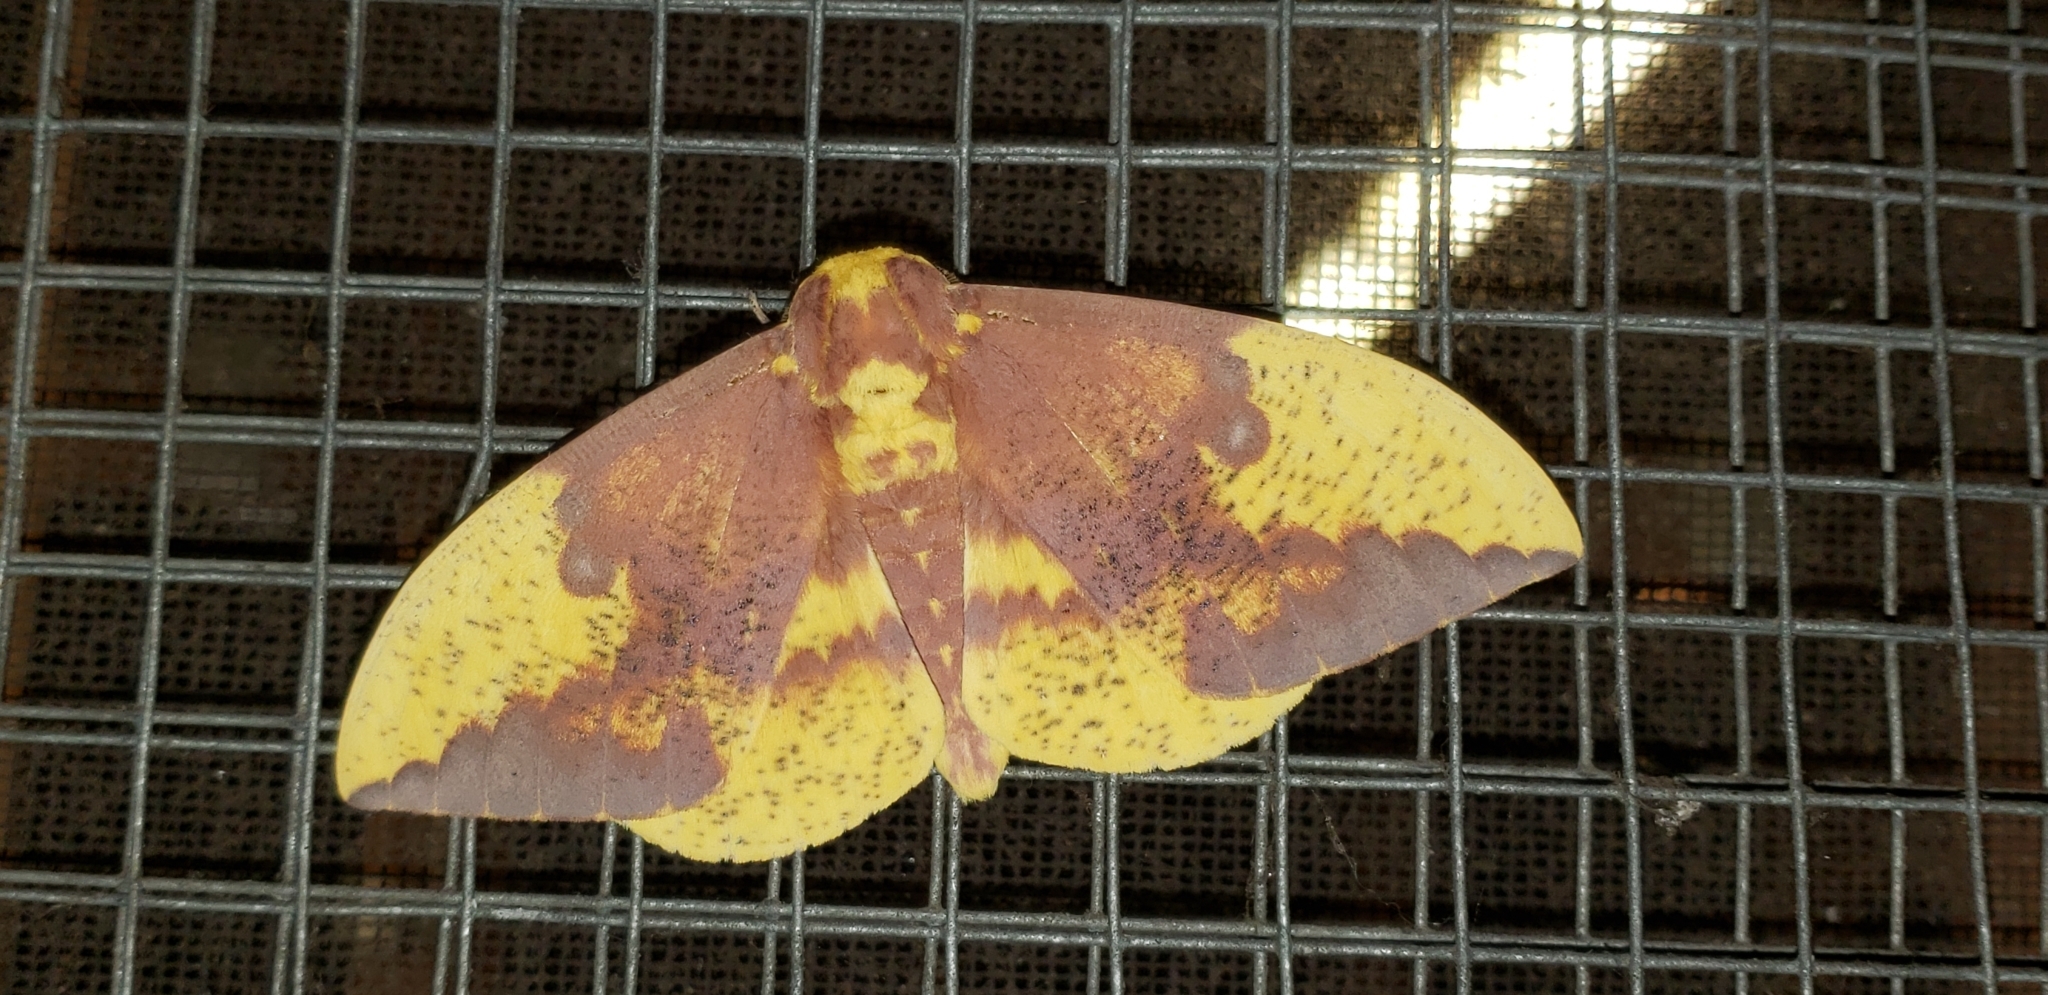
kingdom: Animalia
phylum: Arthropoda
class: Insecta
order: Lepidoptera
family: Saturniidae
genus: Eacles
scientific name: Eacles imperialis
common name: Imperial moth
